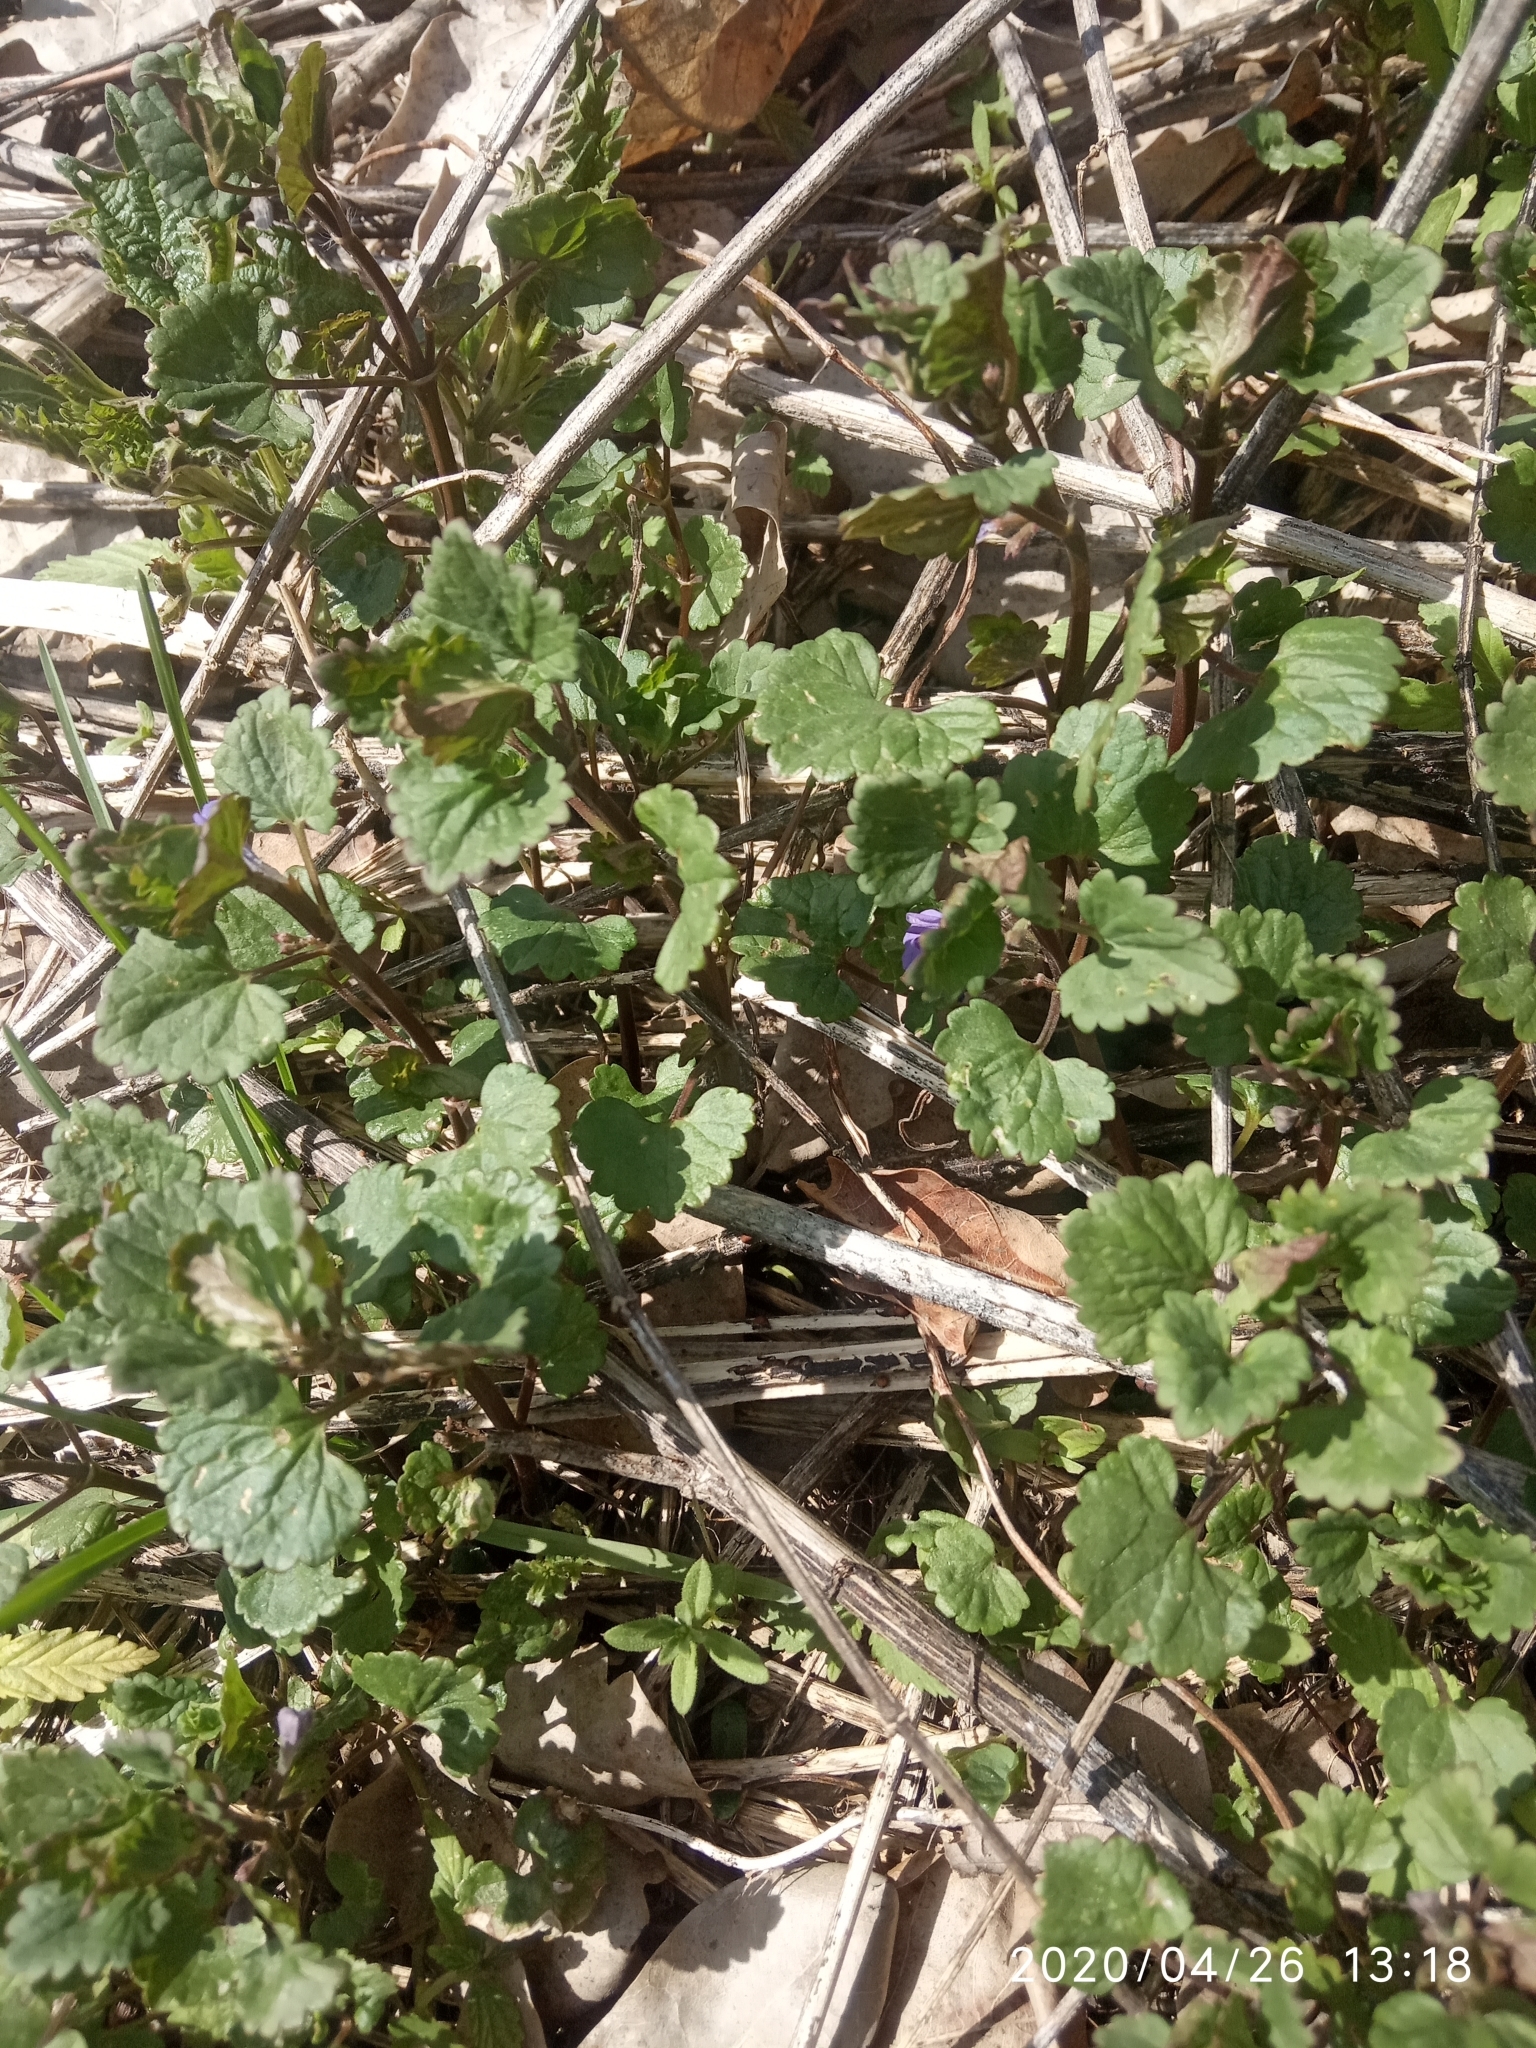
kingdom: Plantae
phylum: Tracheophyta
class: Magnoliopsida
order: Lamiales
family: Lamiaceae
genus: Glechoma
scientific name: Glechoma hederacea
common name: Ground ivy
